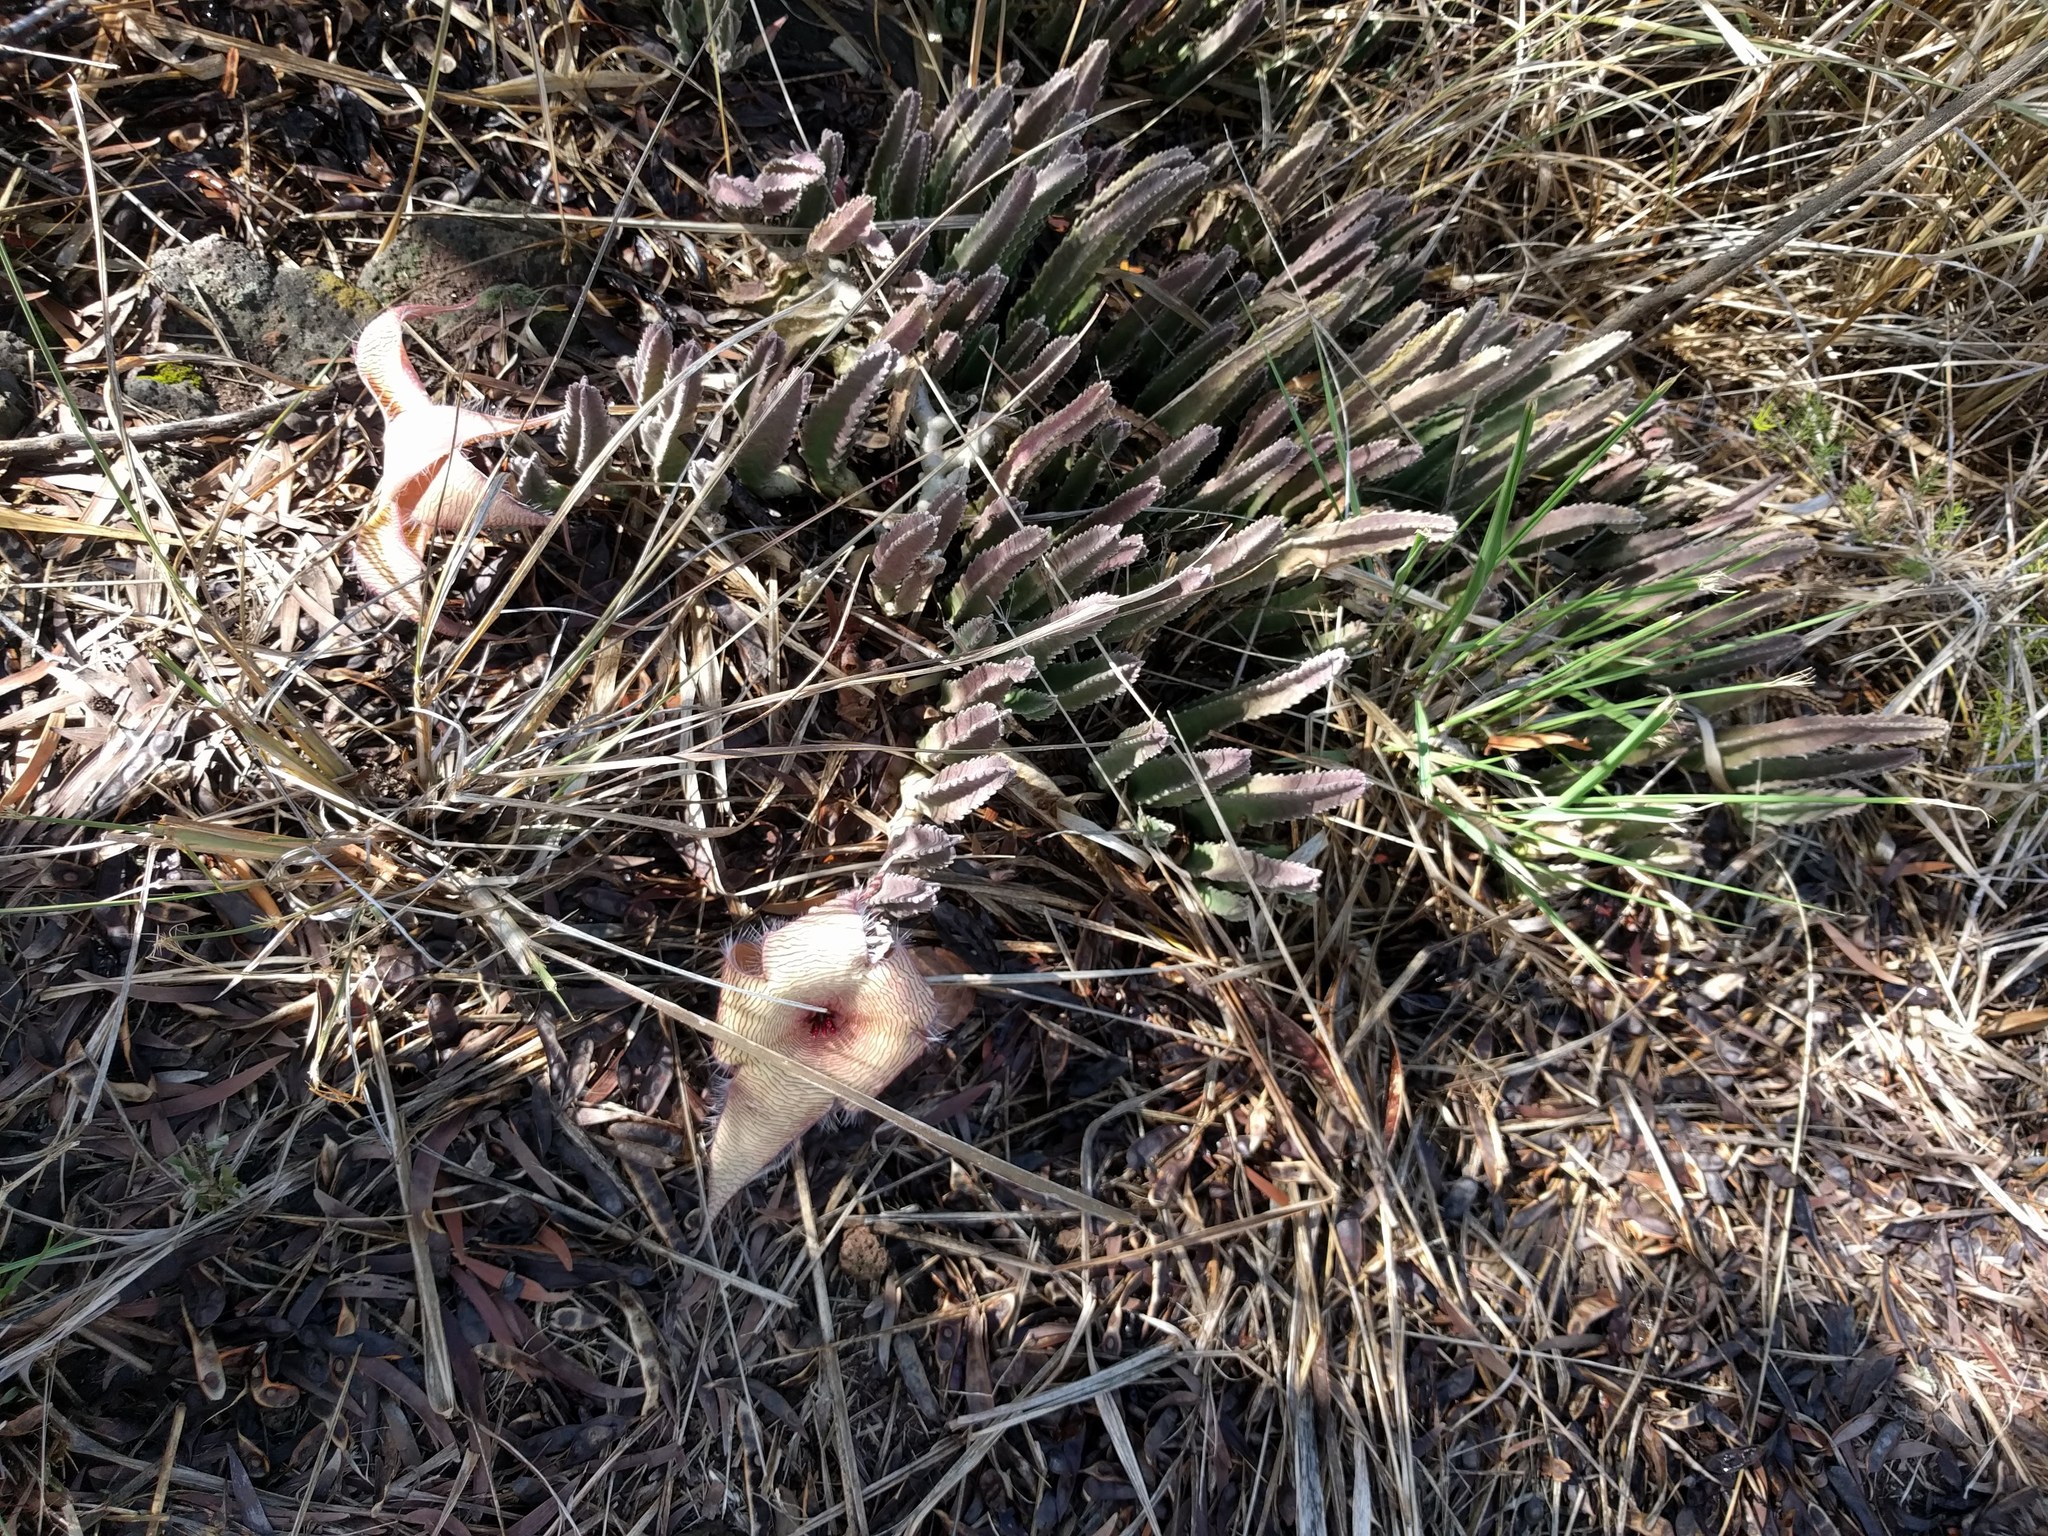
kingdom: Plantae
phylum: Tracheophyta
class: Magnoliopsida
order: Gentianales
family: Apocynaceae
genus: Ceropegia
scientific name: Ceropegia gigantea
